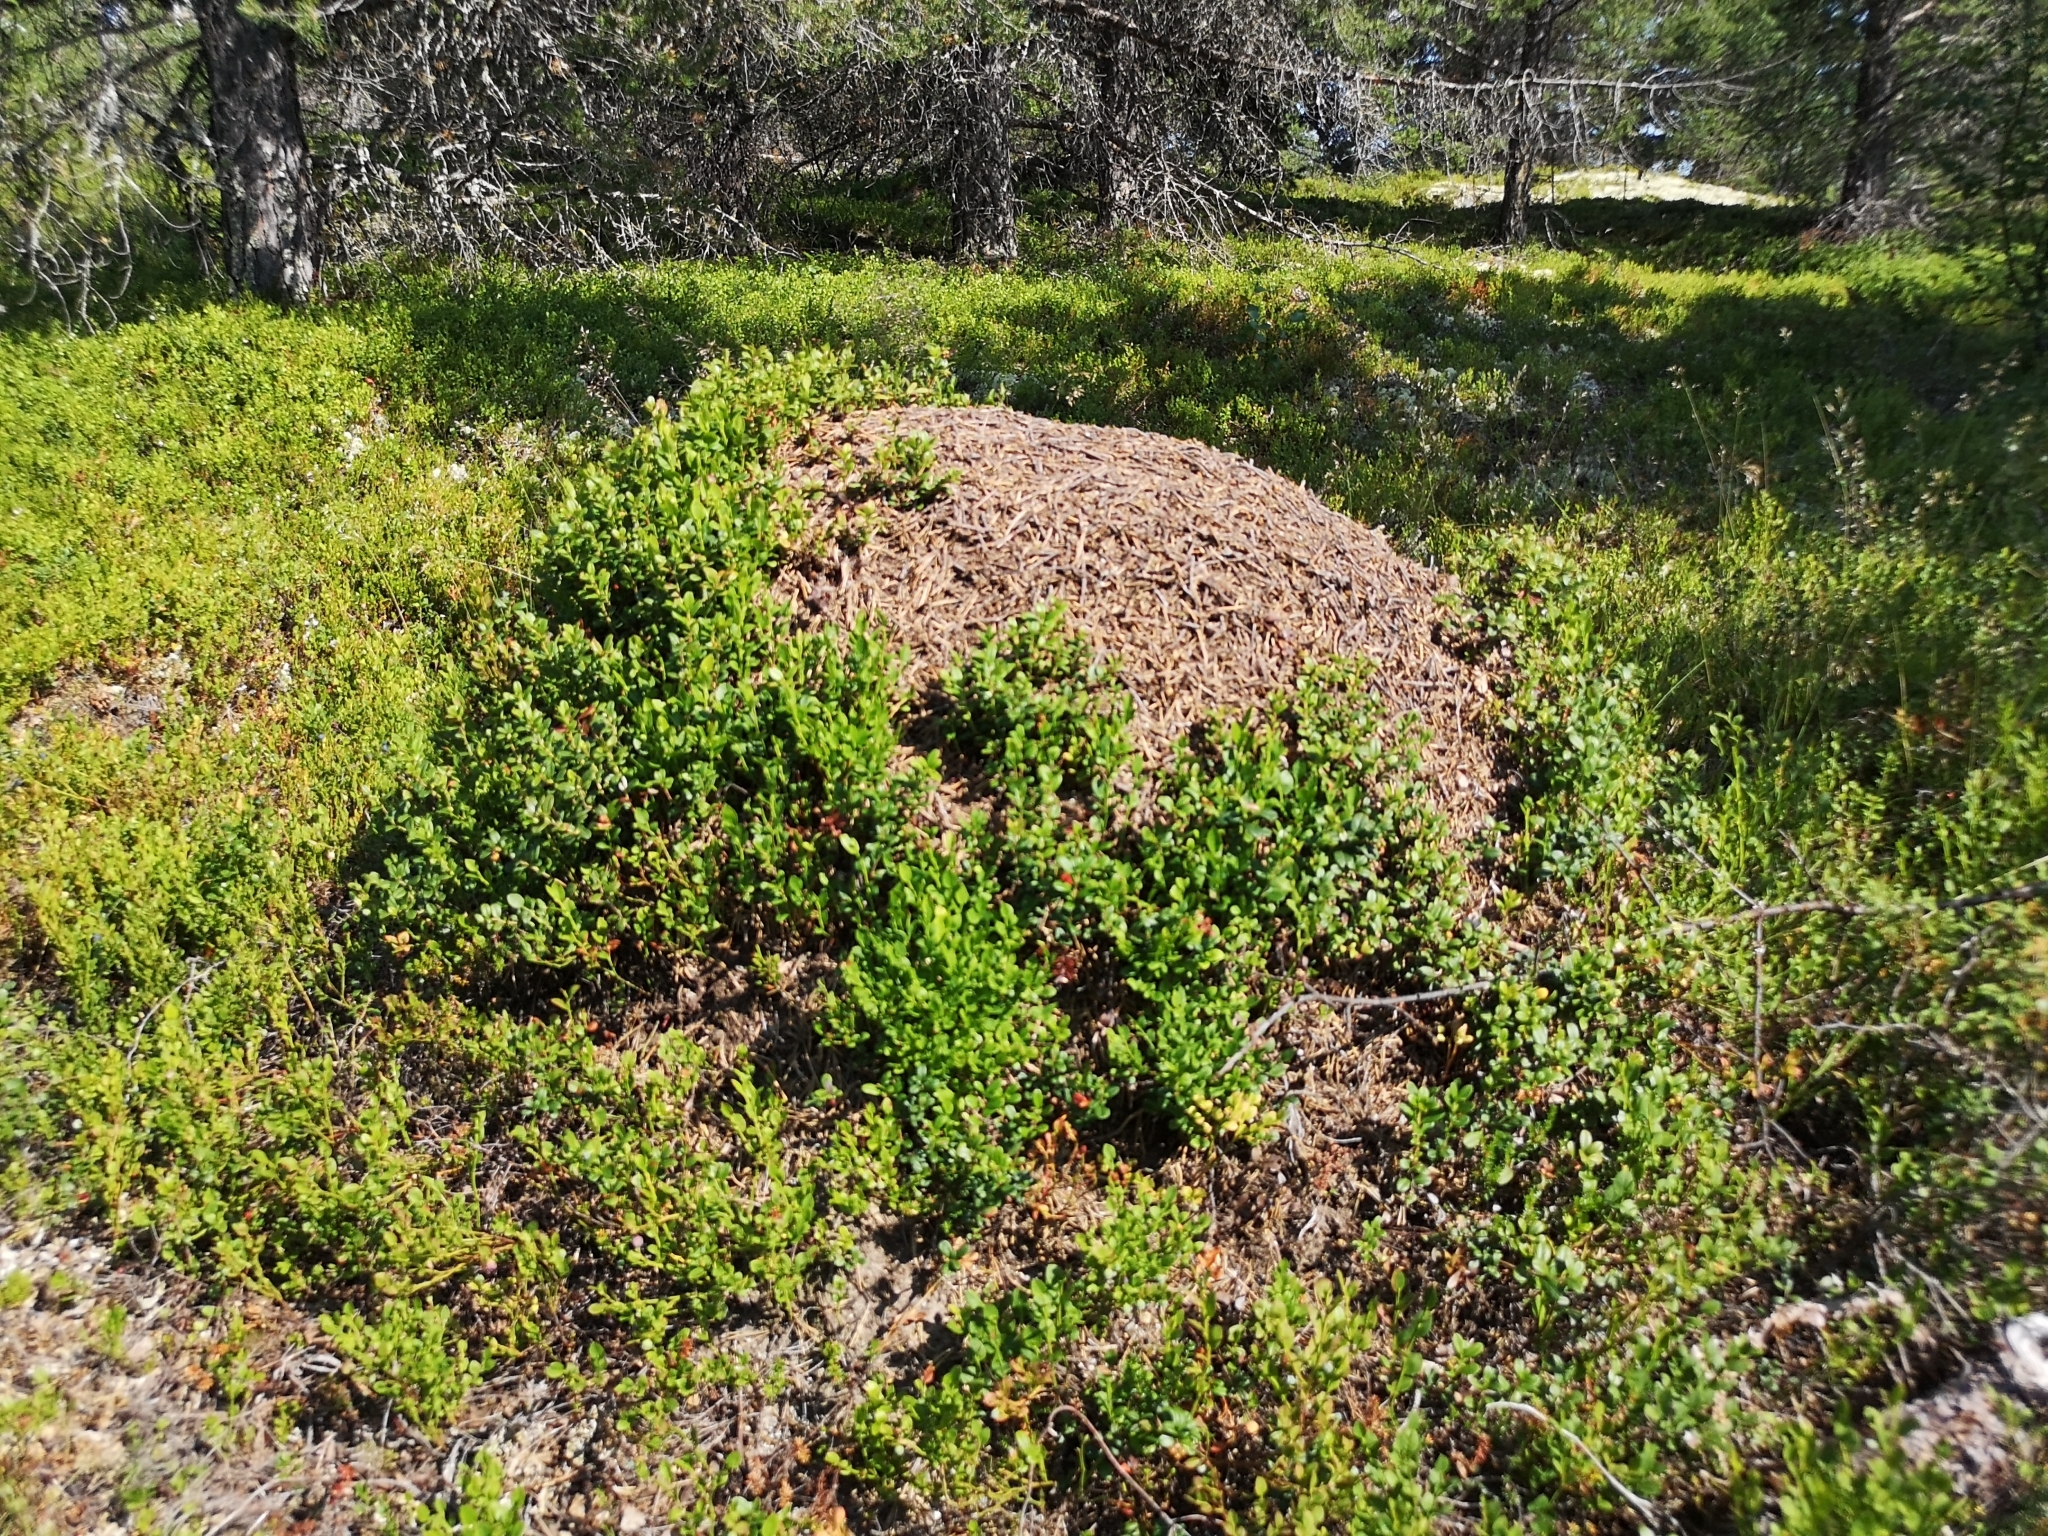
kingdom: Animalia
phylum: Arthropoda
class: Insecta
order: Hymenoptera
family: Formicidae
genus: Formica
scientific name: Formica rufa
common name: Red wood ant
